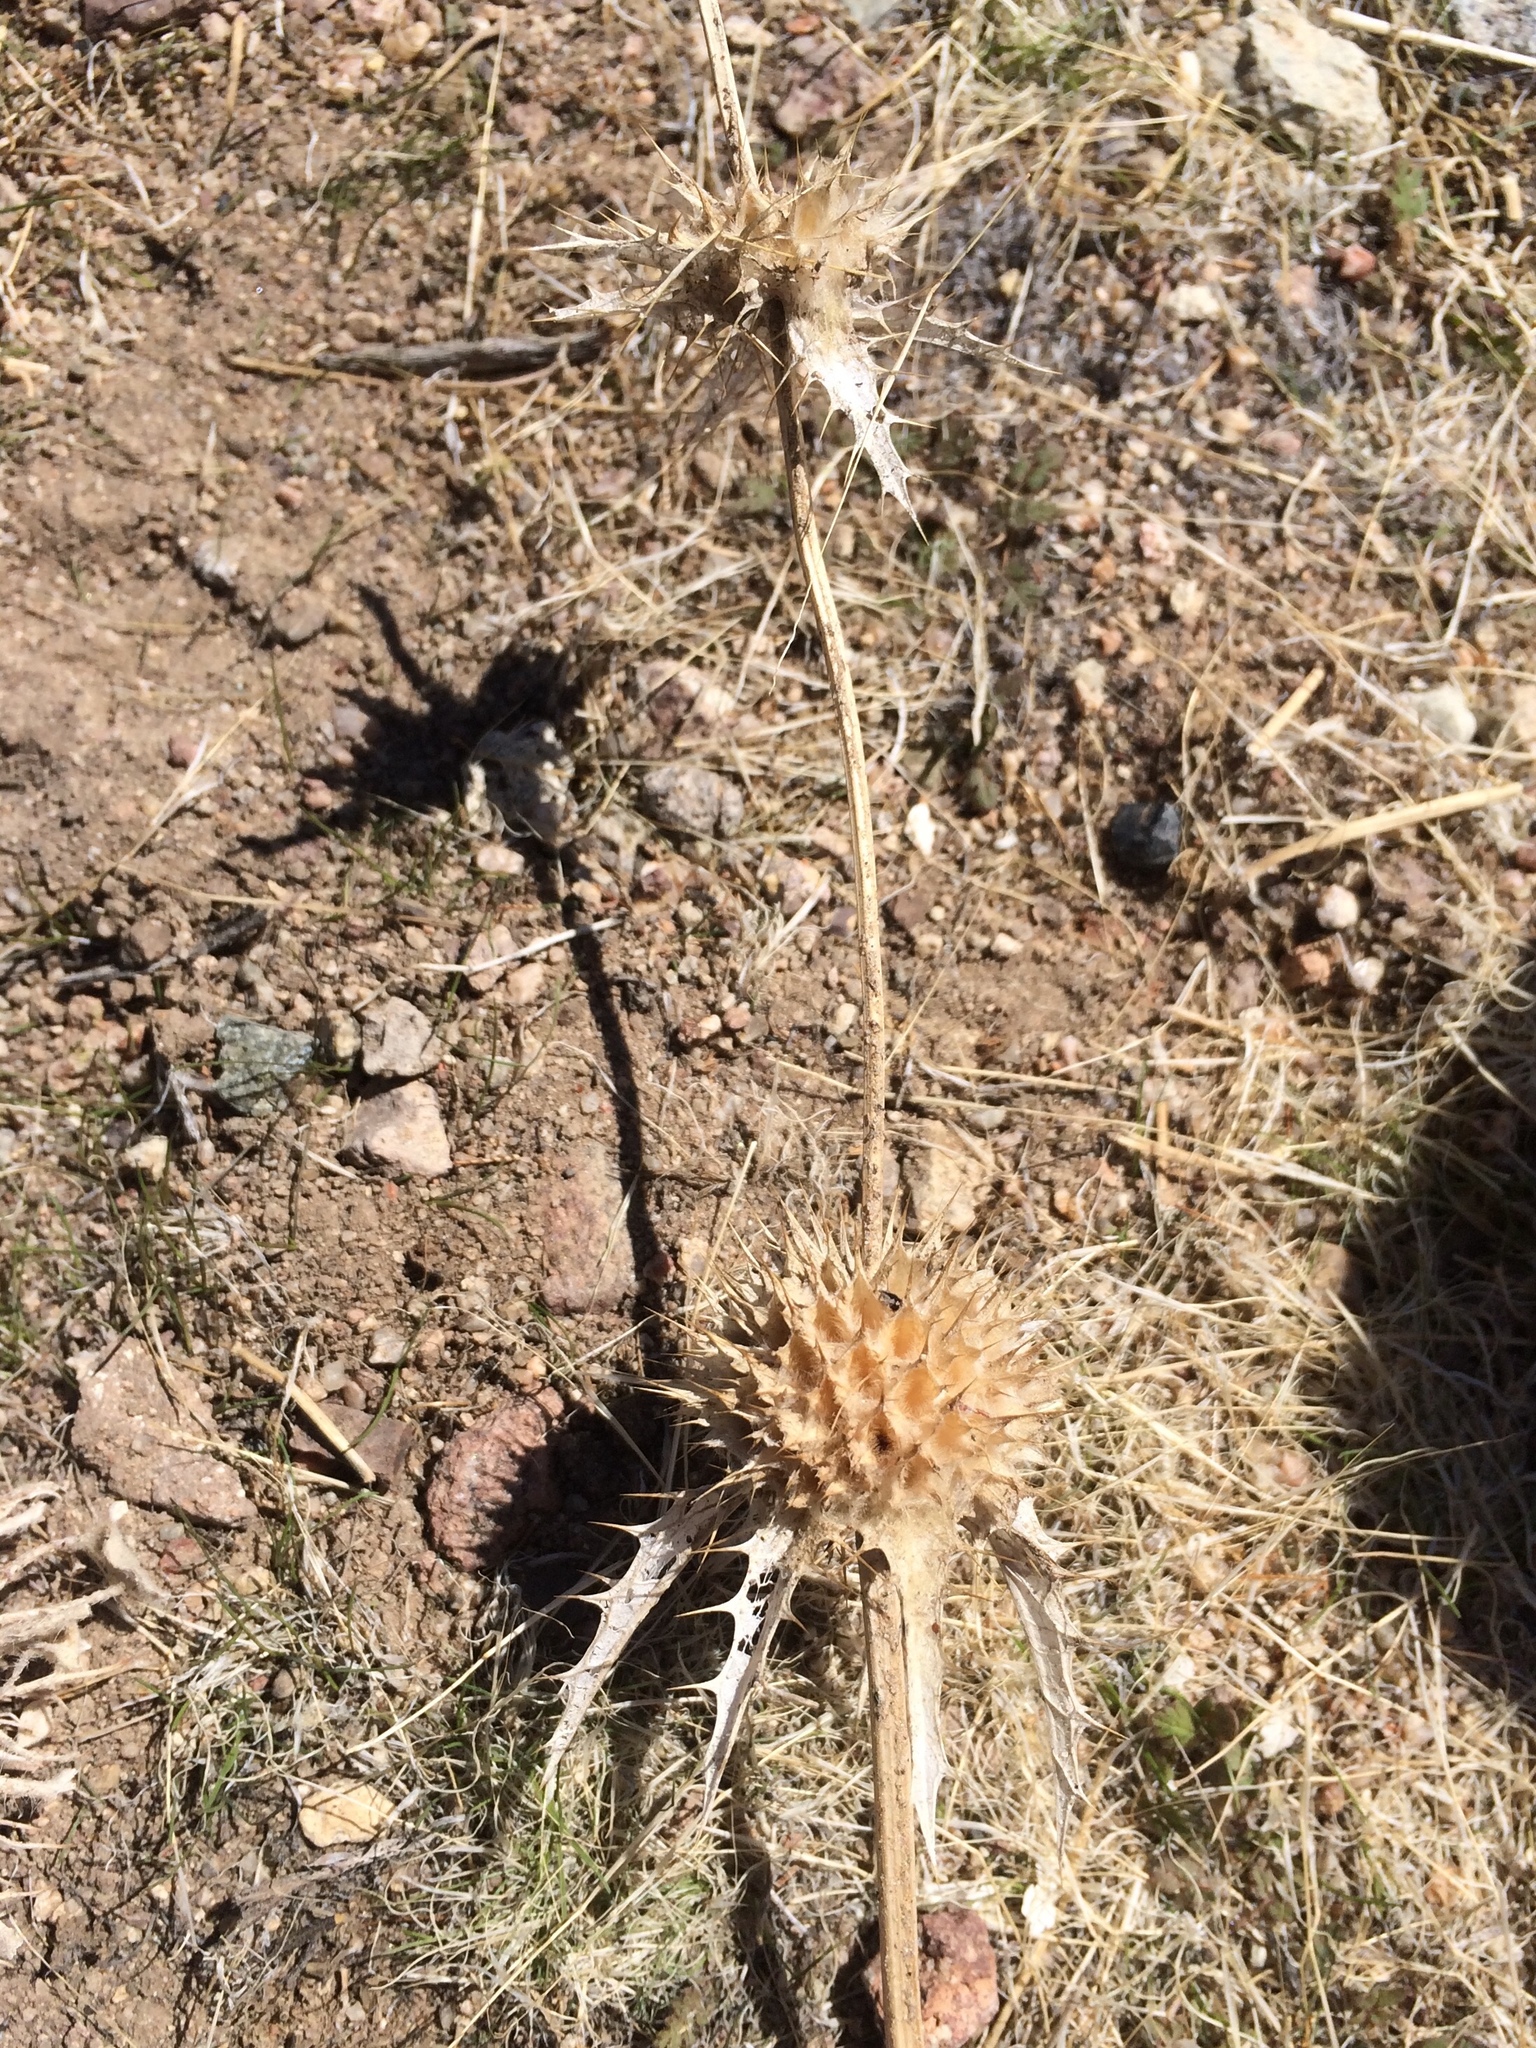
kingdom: Plantae
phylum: Tracheophyta
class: Magnoliopsida
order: Lamiales
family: Lamiaceae
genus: Salvia
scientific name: Salvia carduacea
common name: Thistle sage
